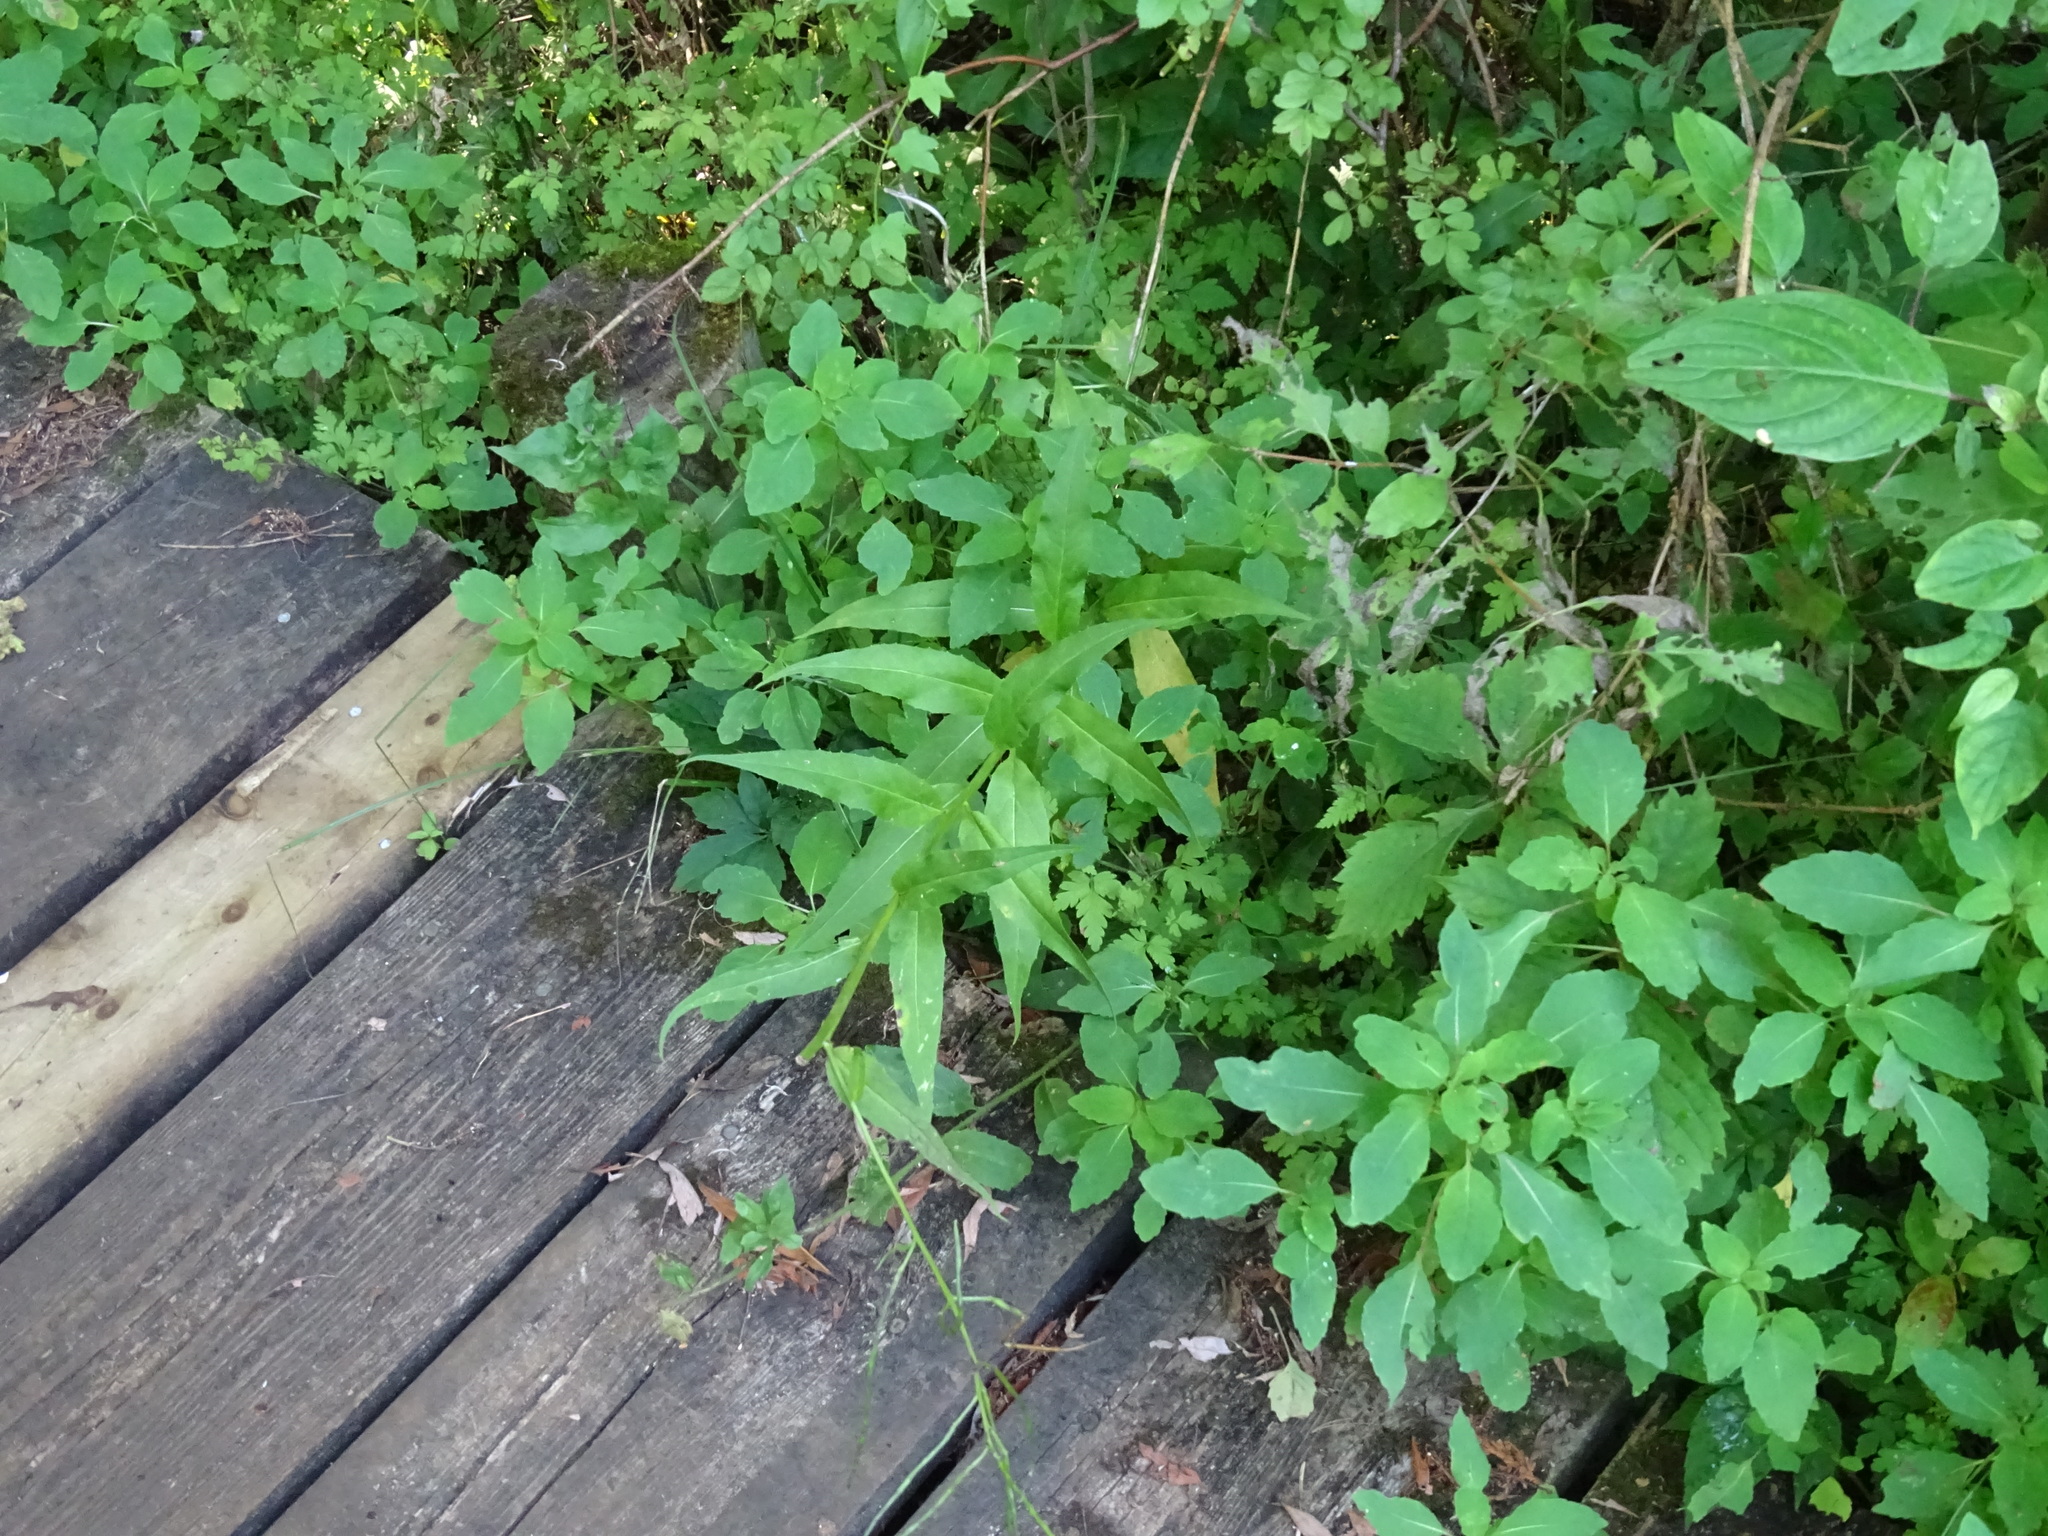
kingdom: Plantae
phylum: Tracheophyta
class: Magnoliopsida
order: Brassicales
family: Brassicaceae
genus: Hesperis
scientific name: Hesperis matronalis
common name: Dame's-violet
